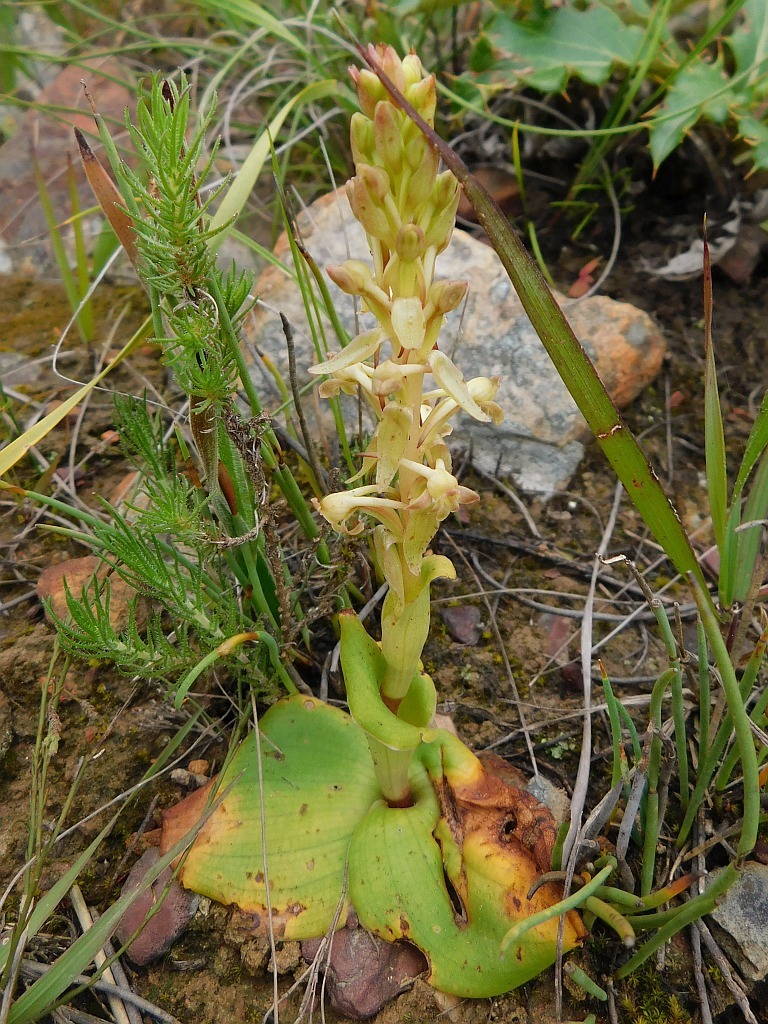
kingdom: Plantae
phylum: Tracheophyta
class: Liliopsida
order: Asparagales
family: Orchidaceae
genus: Satyrium
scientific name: Satyrium humile
